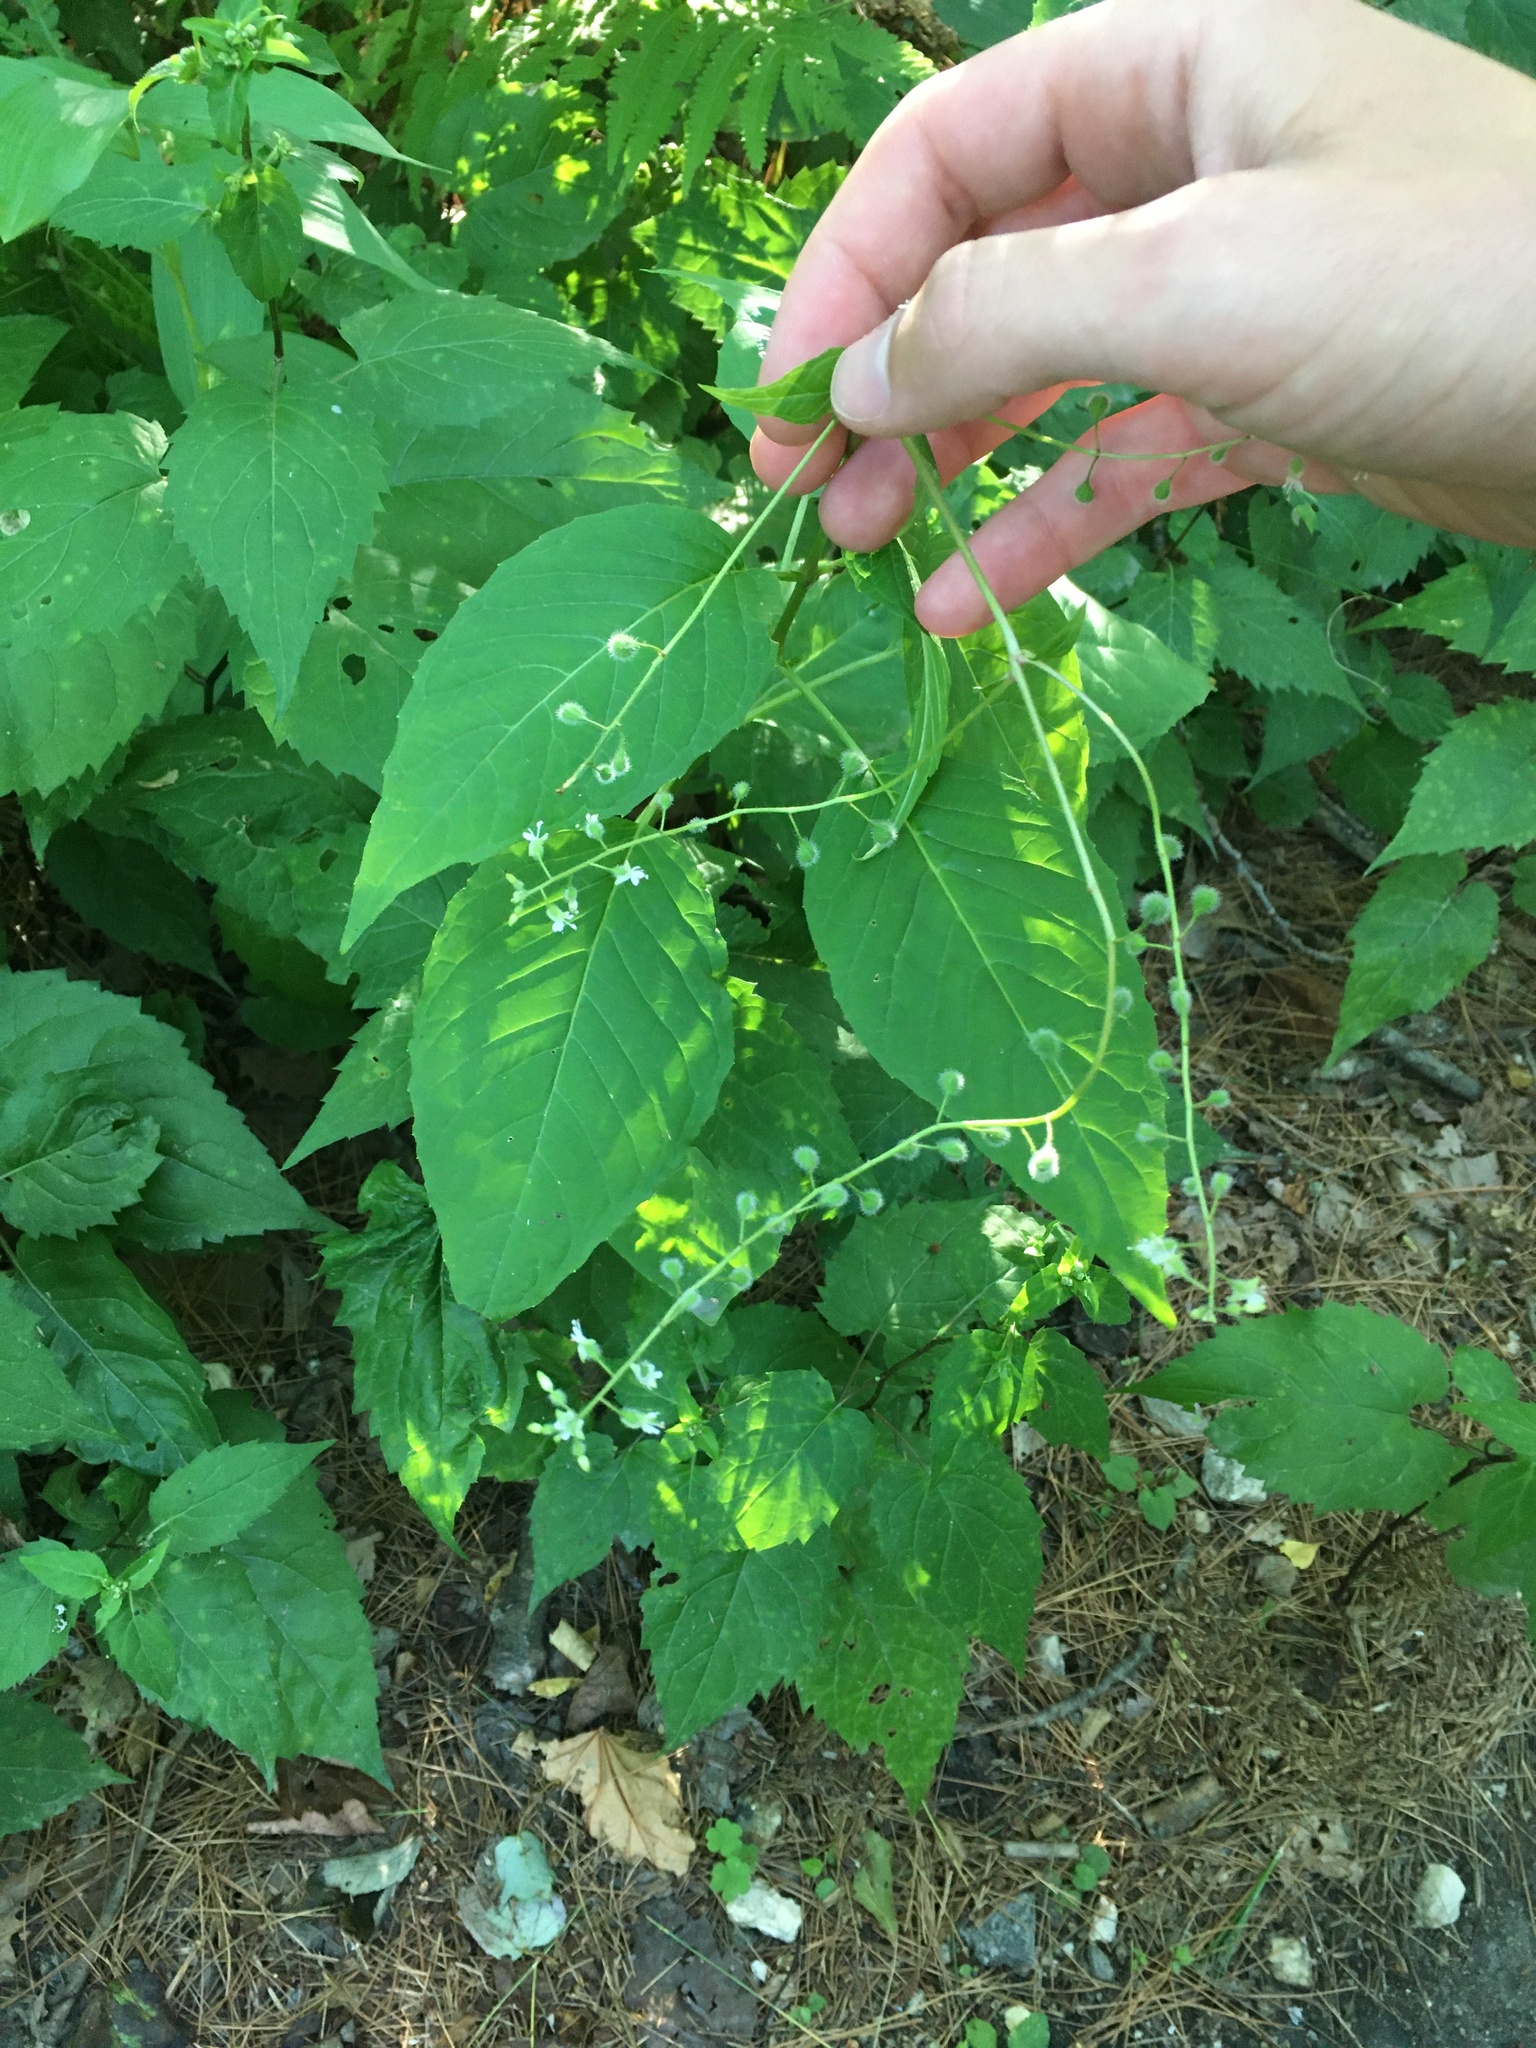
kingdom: Plantae
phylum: Tracheophyta
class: Magnoliopsida
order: Myrtales
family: Onagraceae
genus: Circaea
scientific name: Circaea canadensis
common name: Broad-leaved enchanter's nightshade
